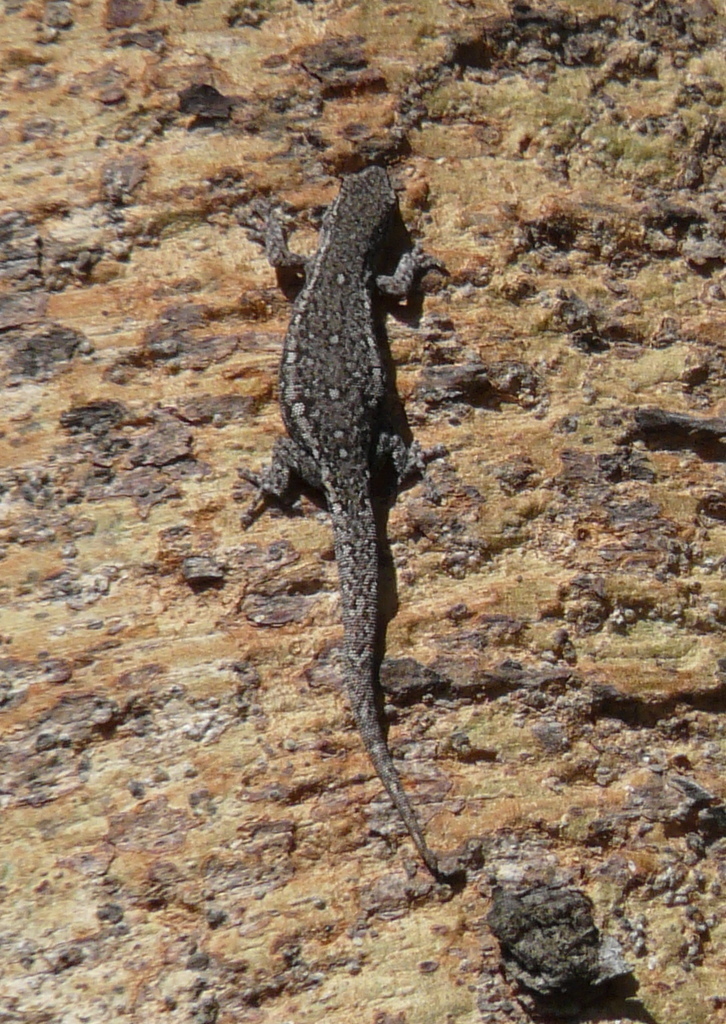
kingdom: Animalia
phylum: Chordata
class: Squamata
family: Gekkonidae
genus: Lygodactylus
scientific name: Lygodactylus capensis
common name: Cape dwarf gecko
